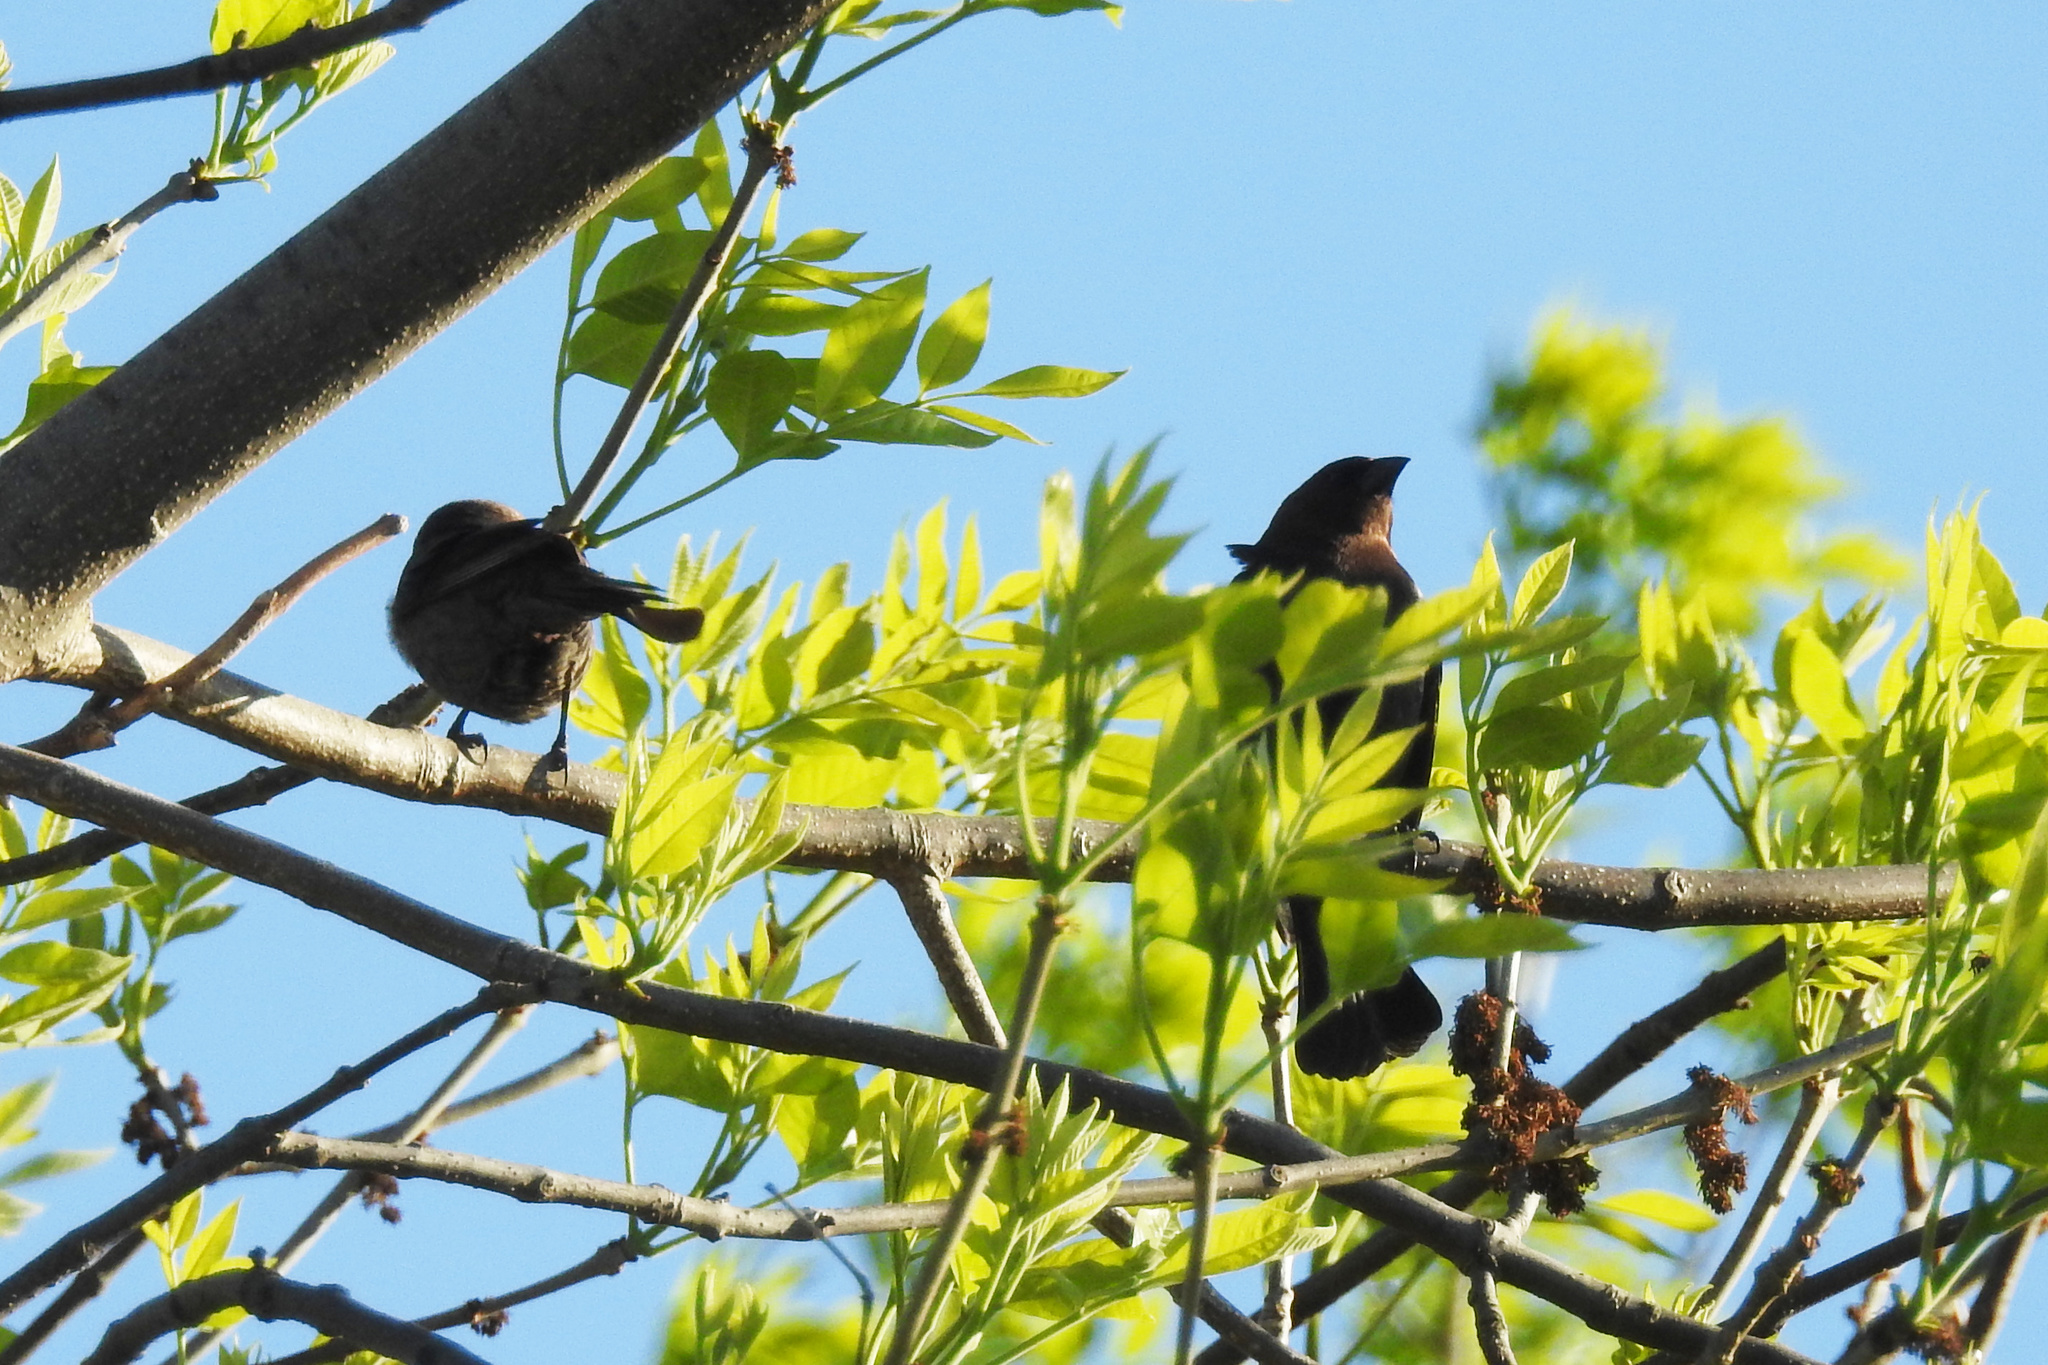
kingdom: Animalia
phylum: Chordata
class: Aves
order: Passeriformes
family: Icteridae
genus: Molothrus
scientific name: Molothrus ater
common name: Brown-headed cowbird
